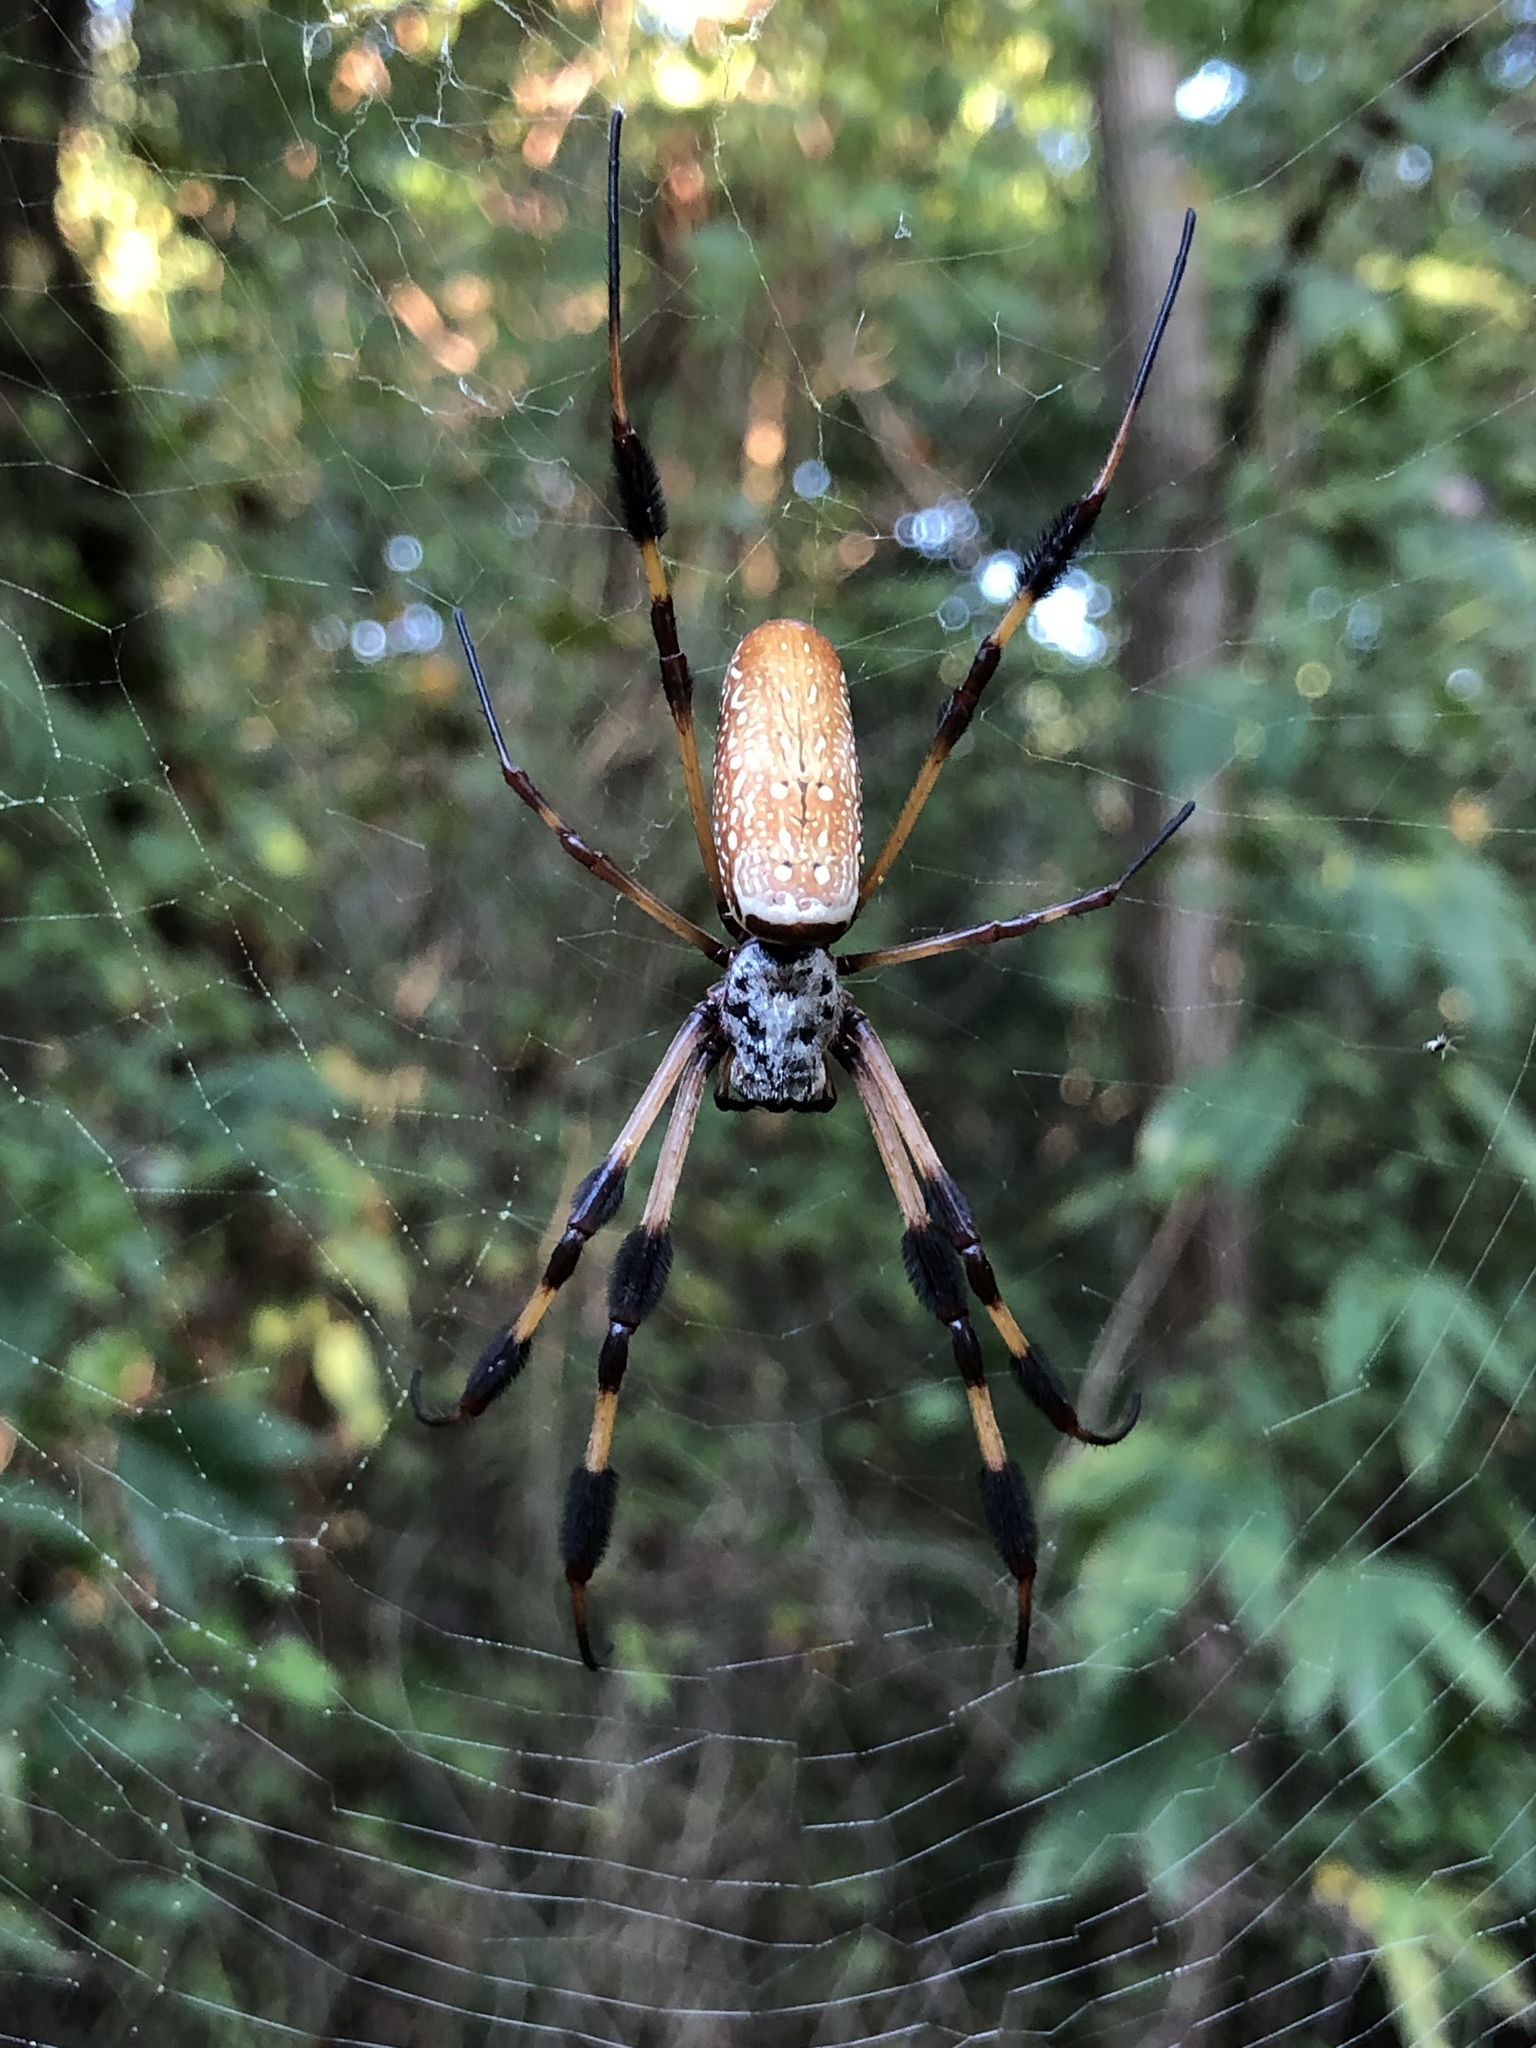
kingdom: Animalia
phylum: Arthropoda
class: Arachnida
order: Araneae
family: Araneidae
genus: Trichonephila
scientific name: Trichonephila clavipes
